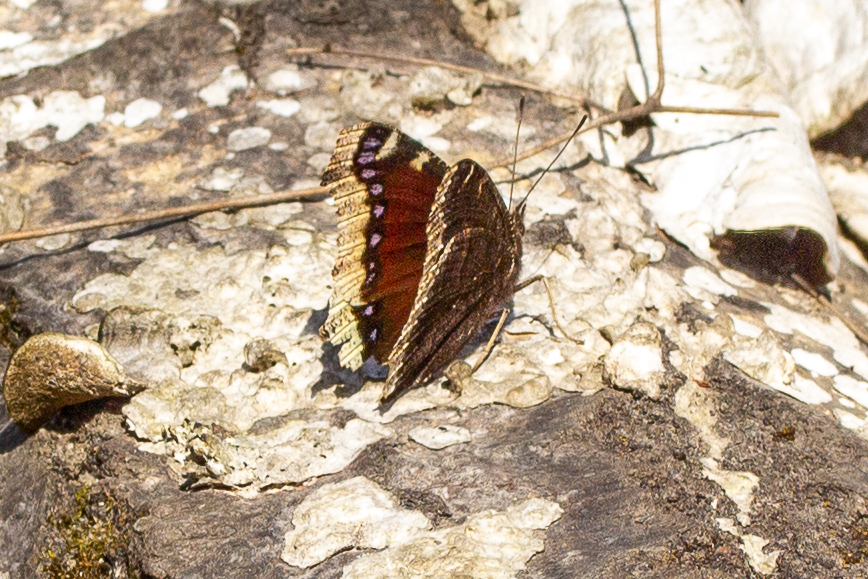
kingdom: Animalia
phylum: Arthropoda
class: Insecta
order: Lepidoptera
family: Nymphalidae
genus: Nymphalis
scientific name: Nymphalis antiopa
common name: Camberwell beauty
